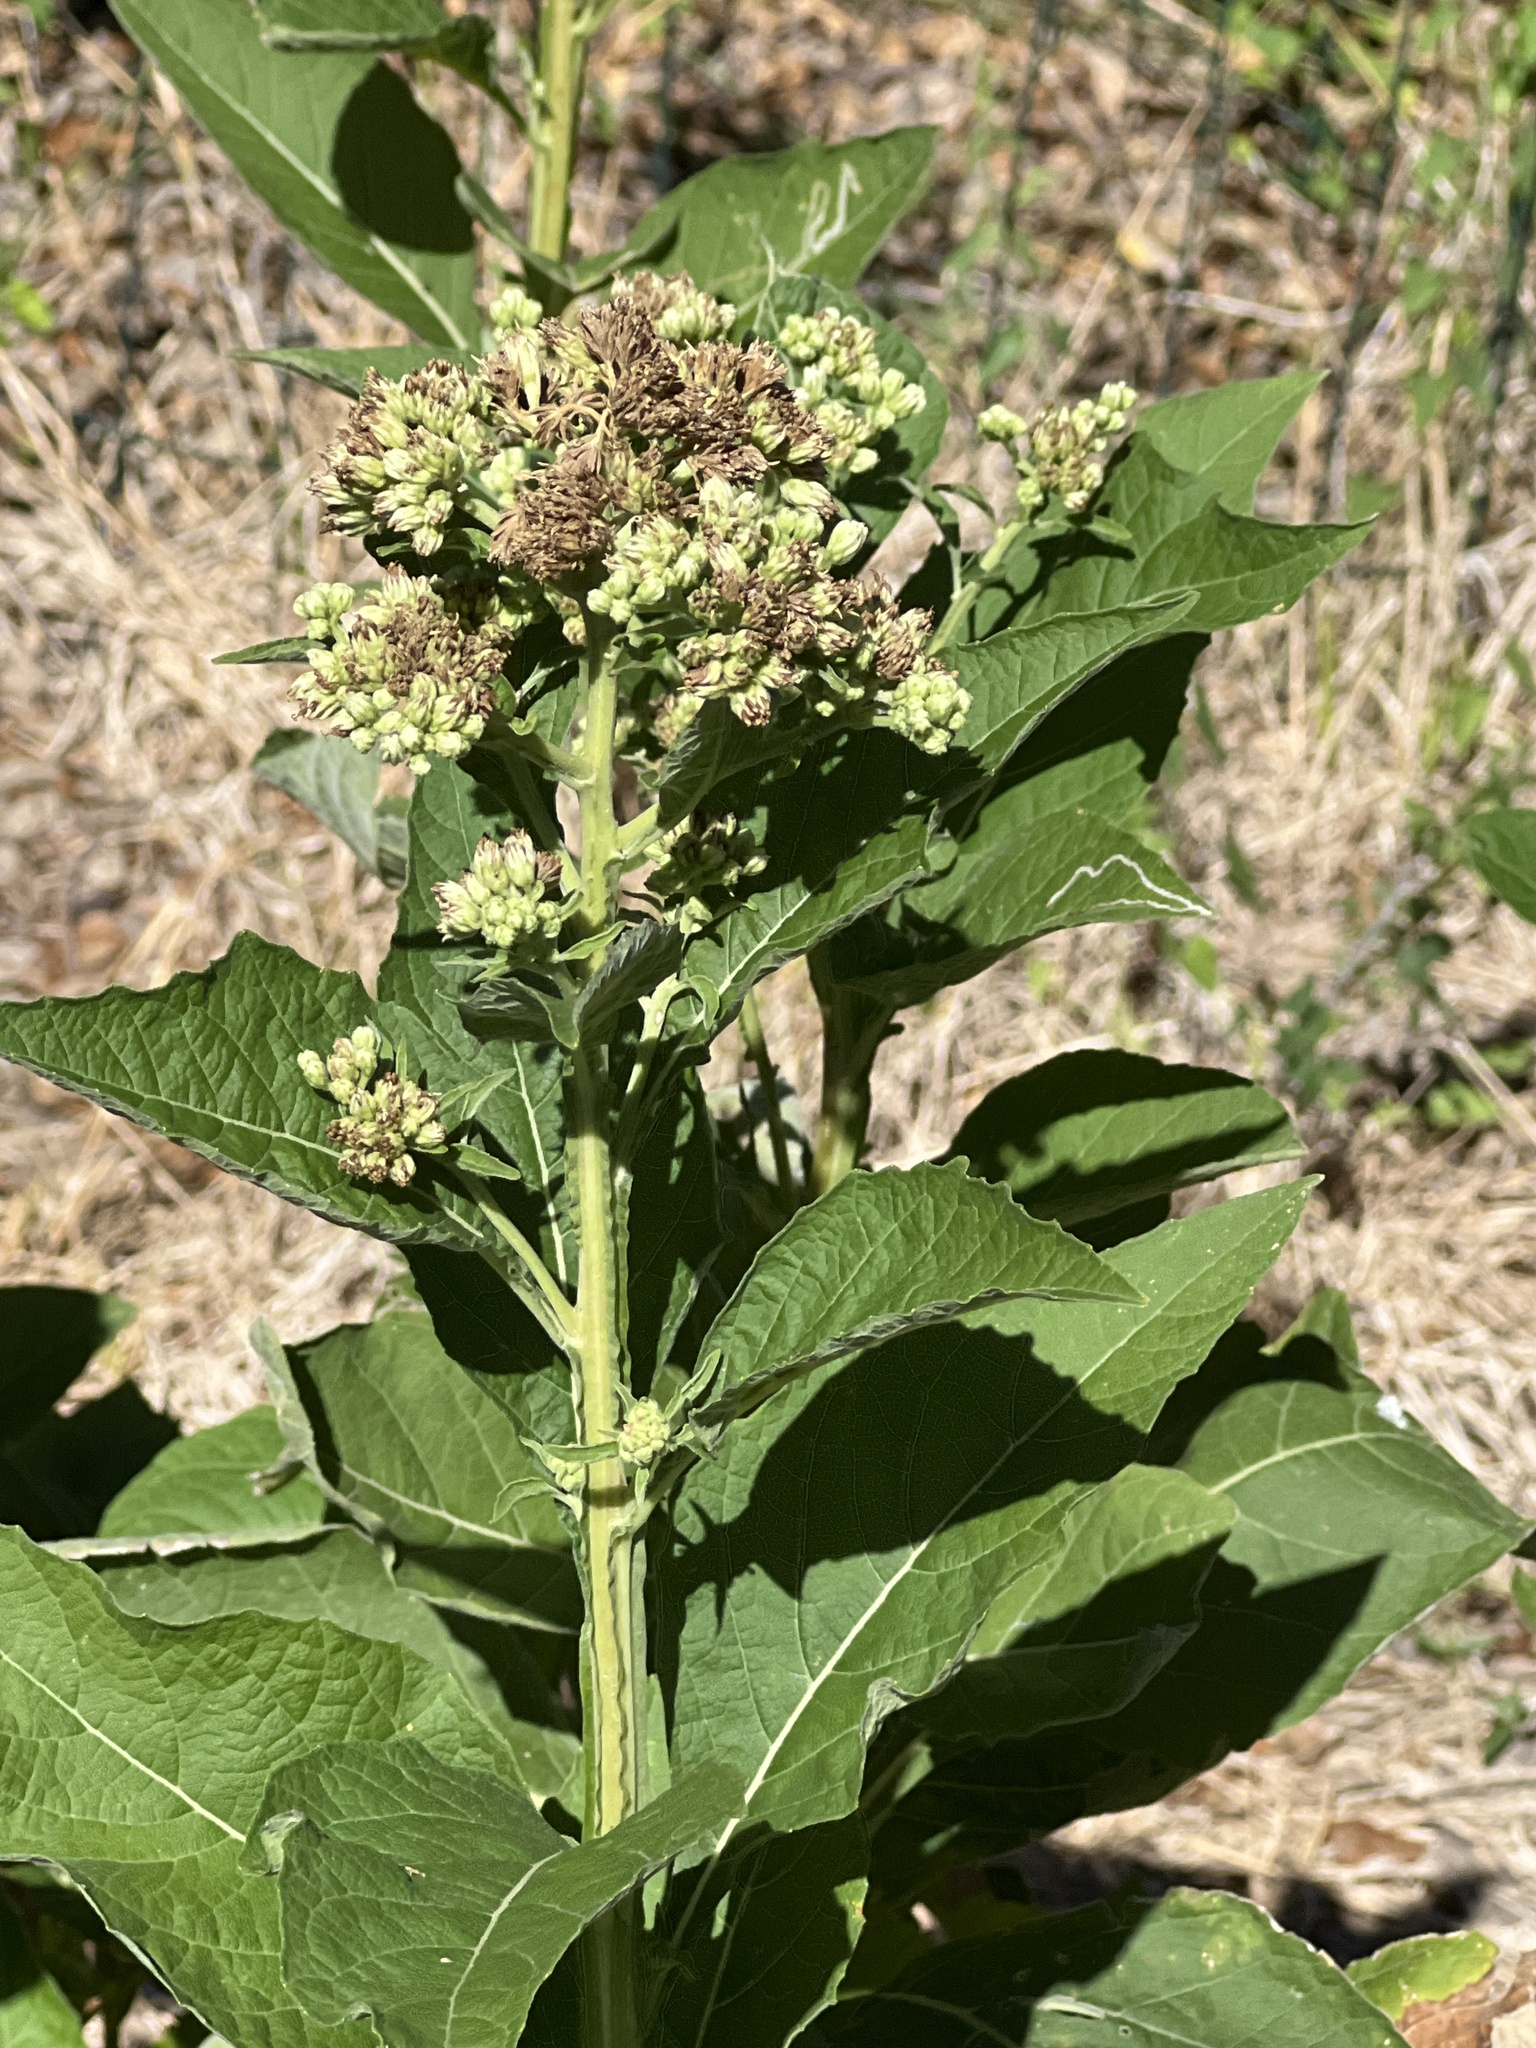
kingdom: Plantae
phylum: Tracheophyta
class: Magnoliopsida
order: Asterales
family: Asteraceae
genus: Verbesina
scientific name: Verbesina virginica
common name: Frostweed
